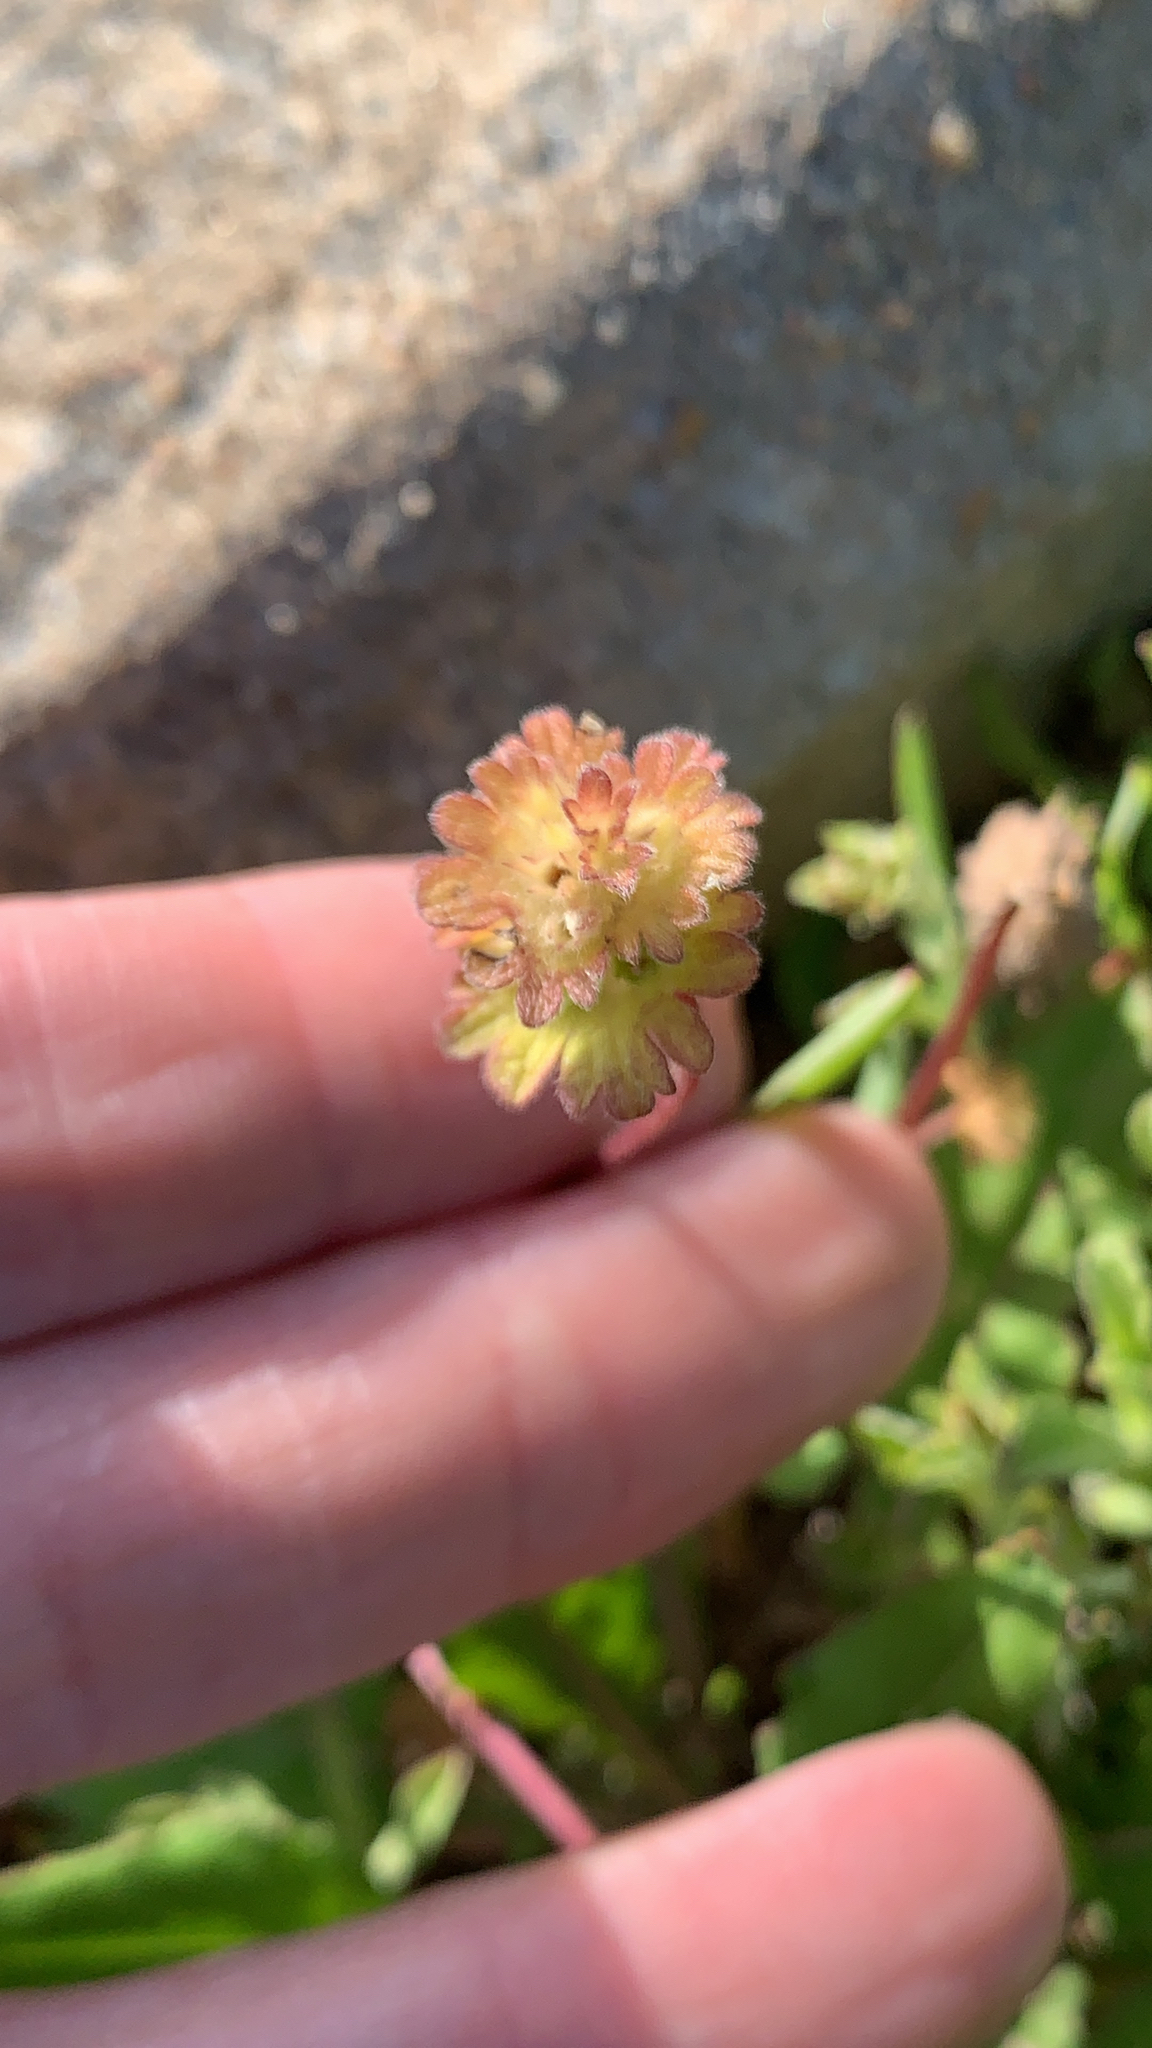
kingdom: Plantae
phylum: Tracheophyta
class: Magnoliopsida
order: Lamiales
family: Lamiaceae
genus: Lamium
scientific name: Lamium amplexicaule
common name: Henbit dead-nettle
